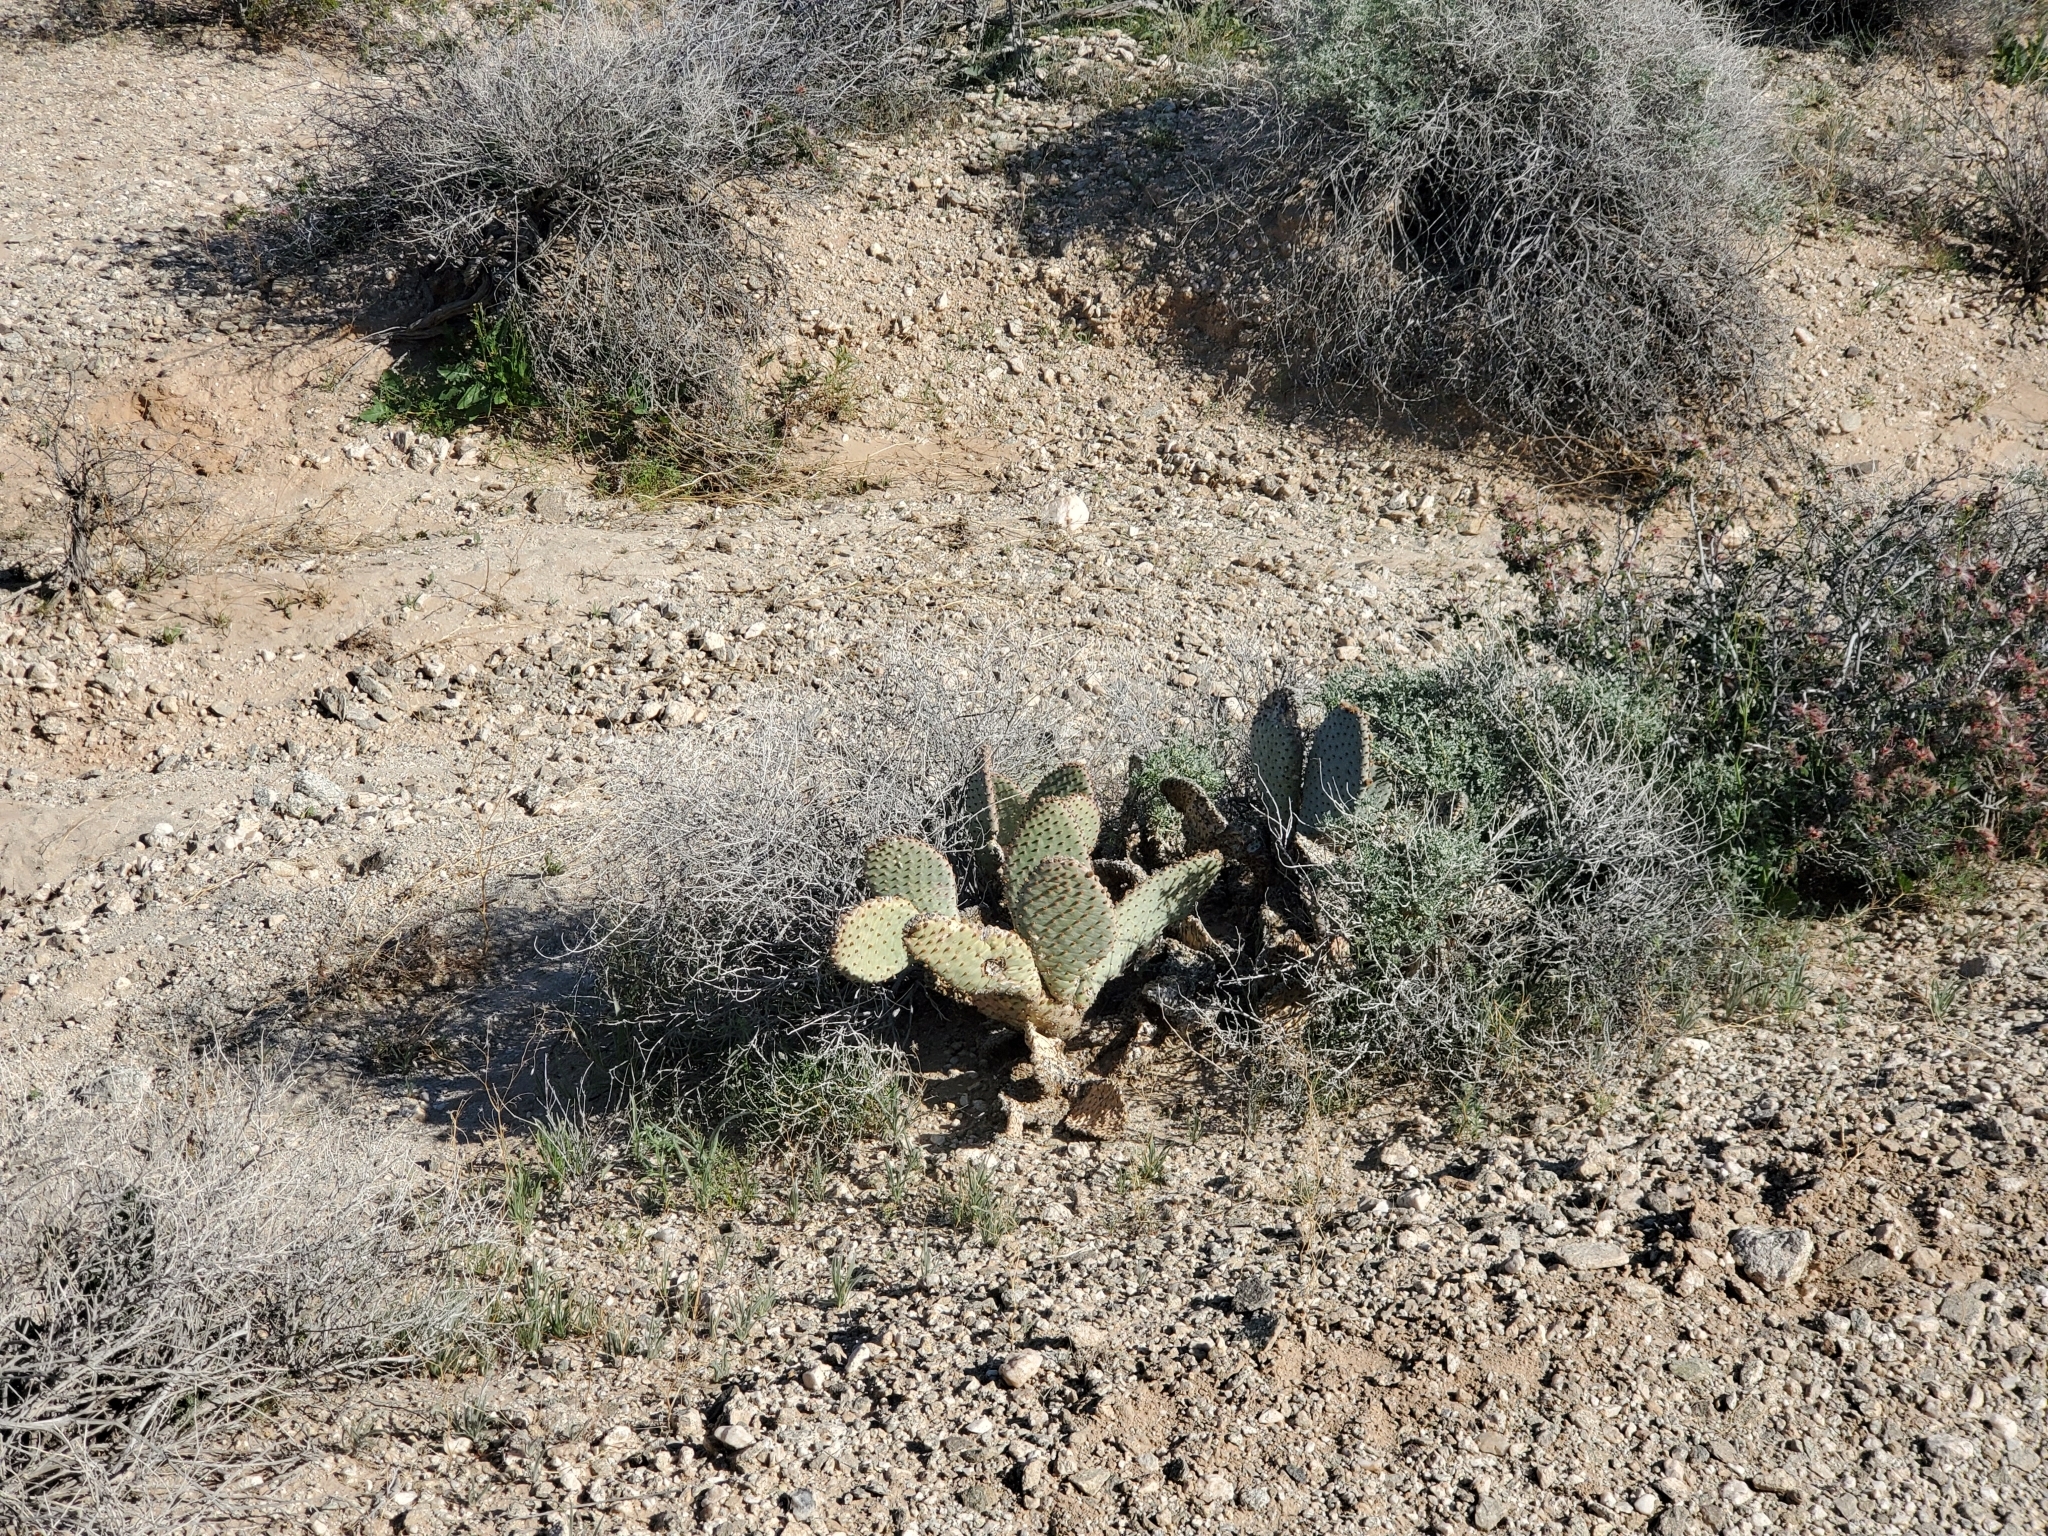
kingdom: Plantae
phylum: Tracheophyta
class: Magnoliopsida
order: Caryophyllales
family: Cactaceae
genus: Opuntia
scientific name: Opuntia basilaris
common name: Beavertail prickly-pear
